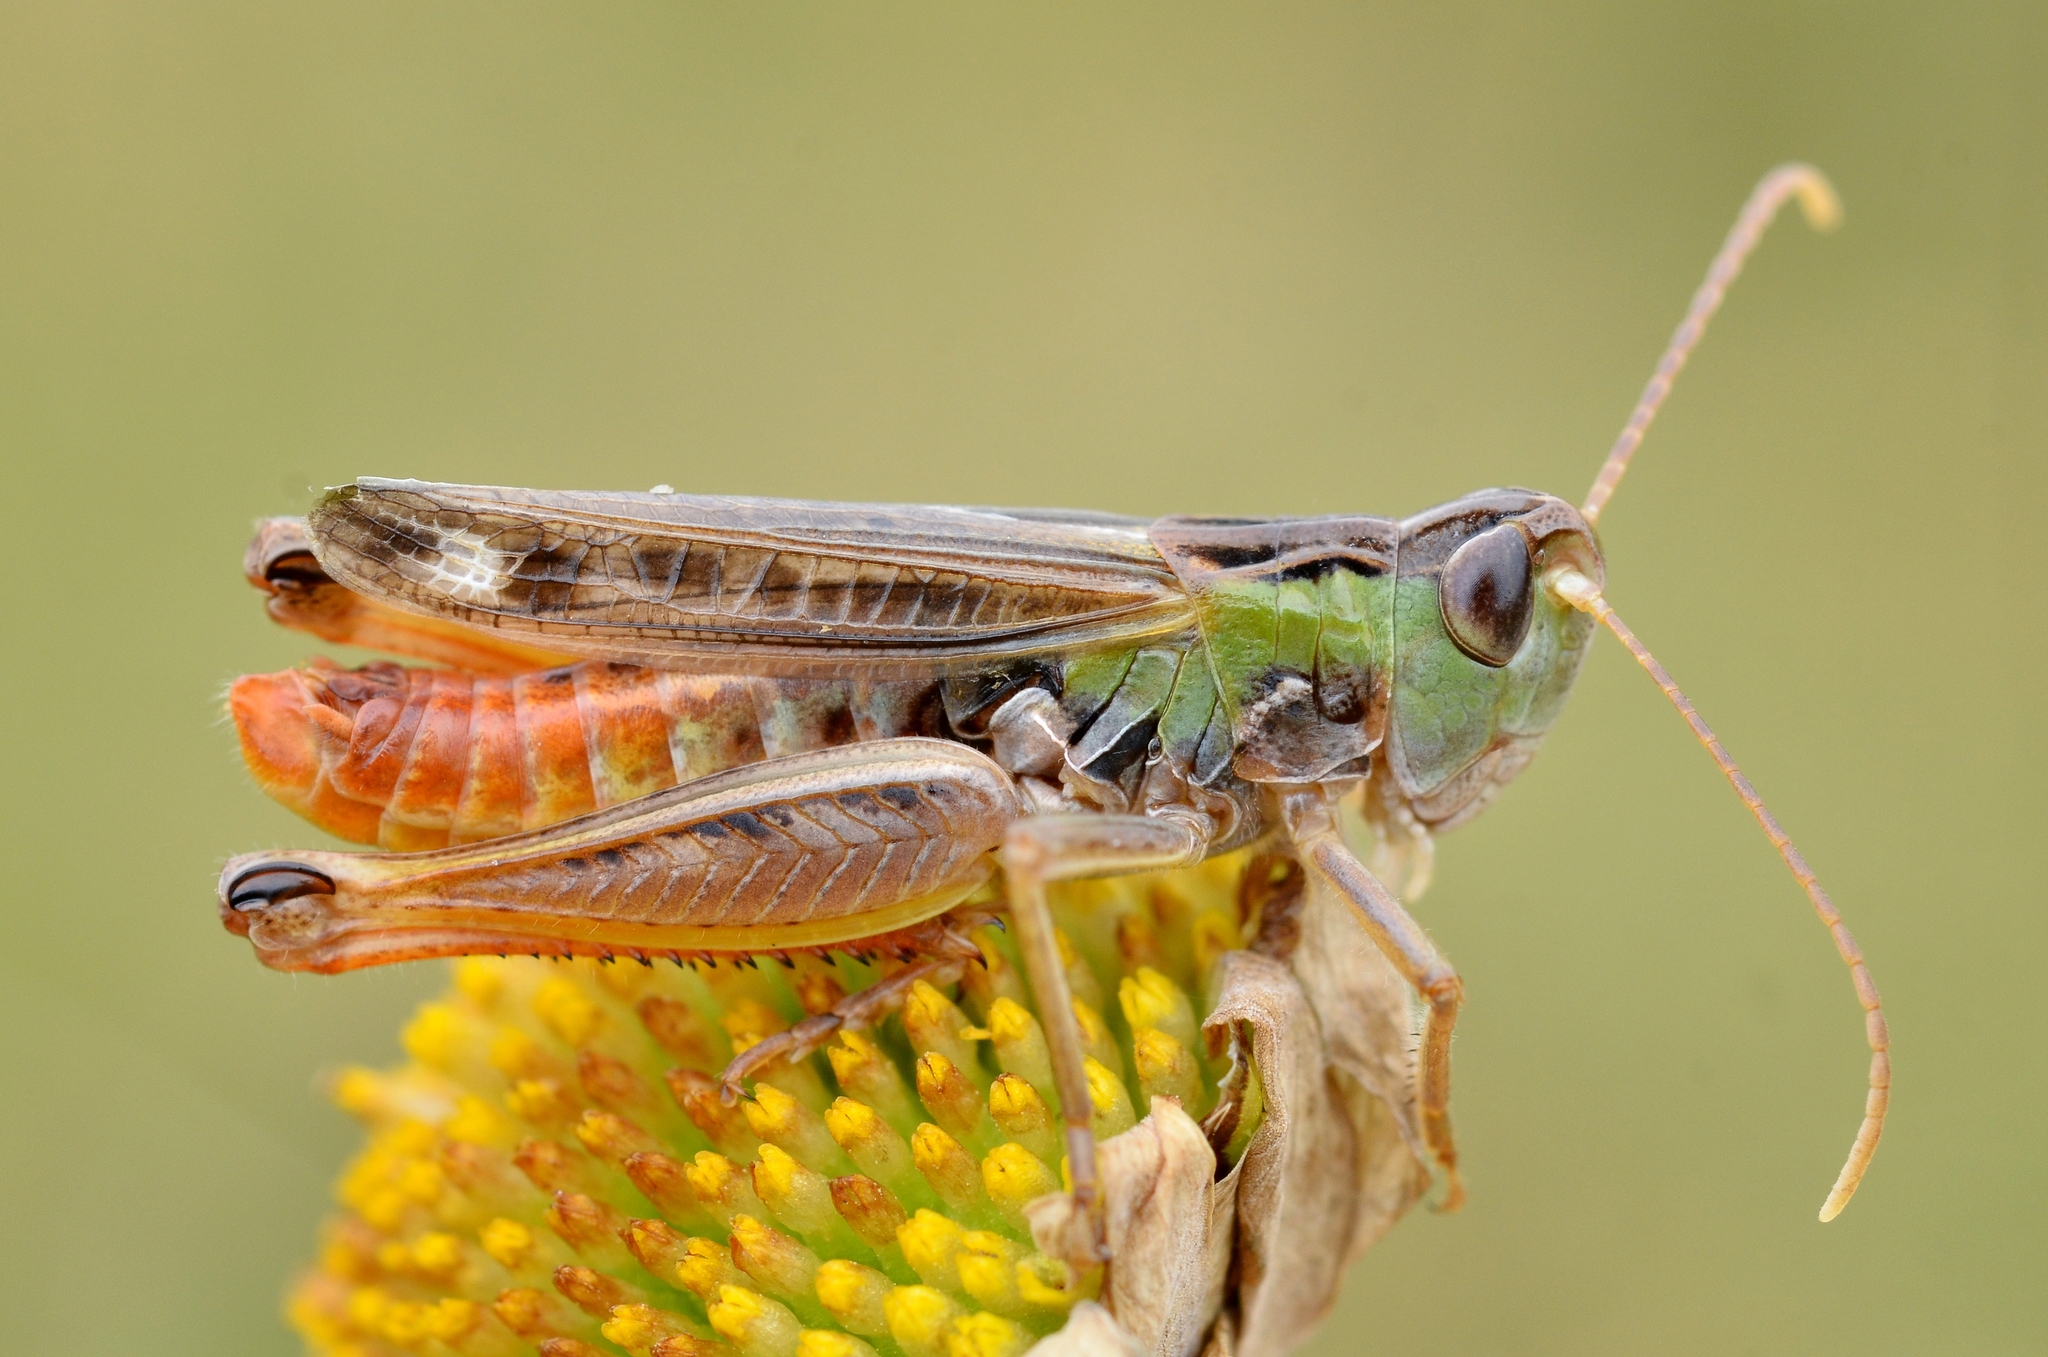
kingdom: Animalia
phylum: Arthropoda
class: Insecta
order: Orthoptera
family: Acrididae
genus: Stenobothrus
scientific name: Stenobothrus nigromaculatus
